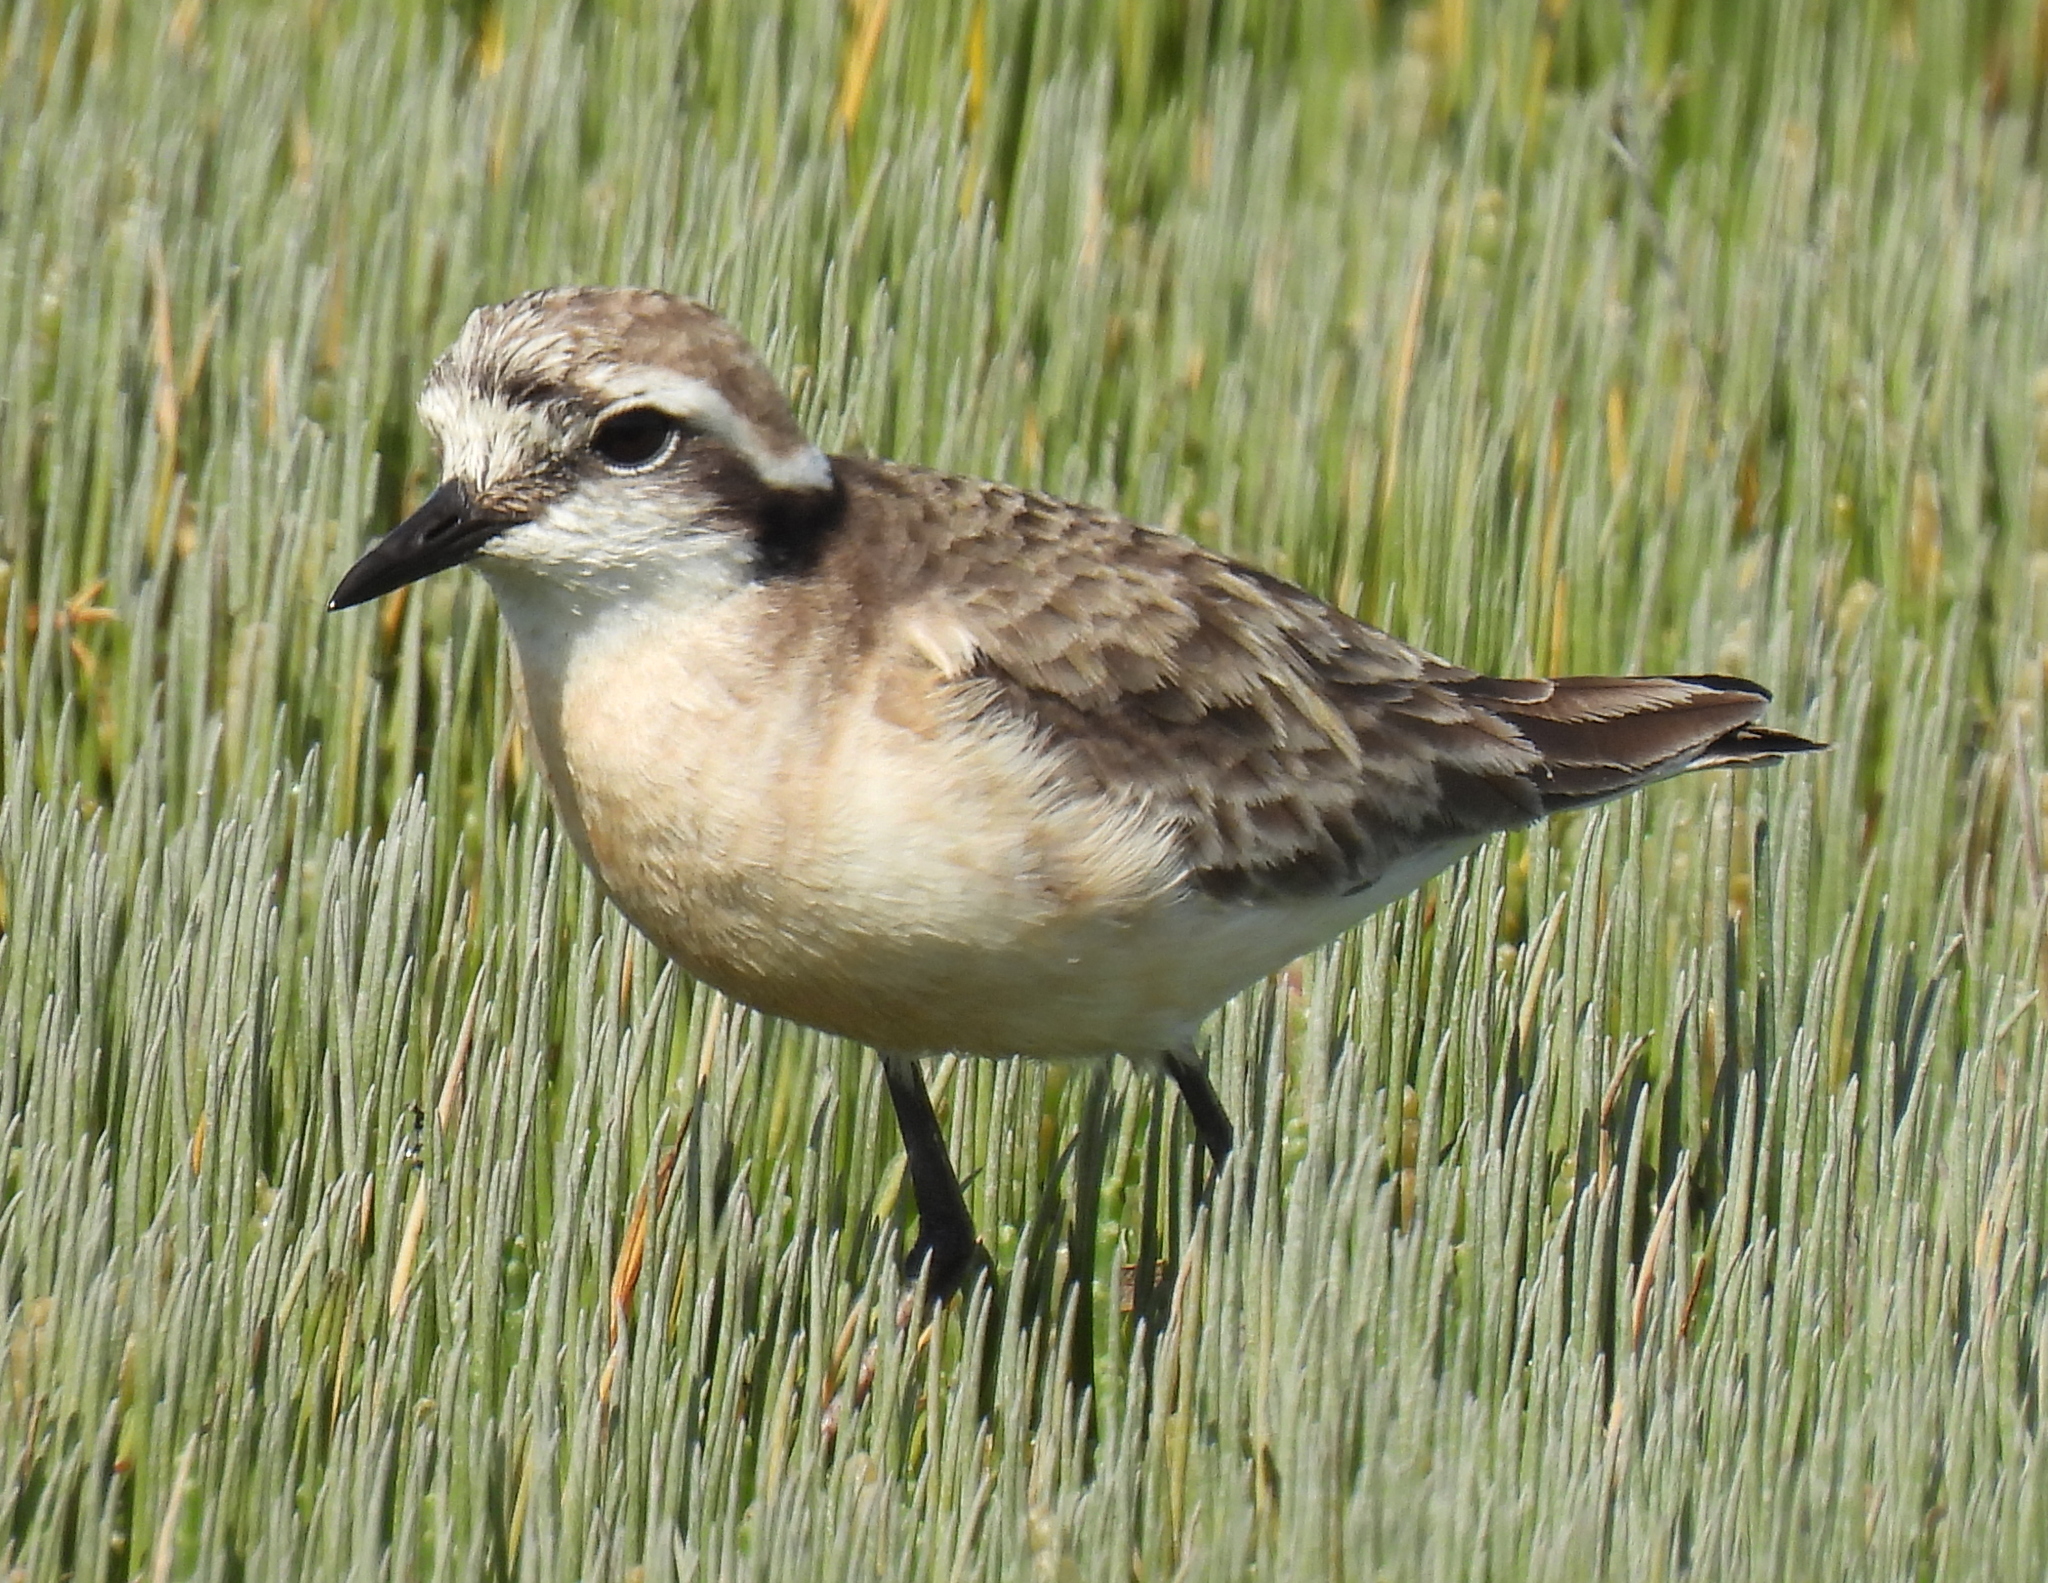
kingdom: Animalia
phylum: Chordata
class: Aves
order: Charadriiformes
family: Charadriidae
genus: Anarhynchus
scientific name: Anarhynchus
